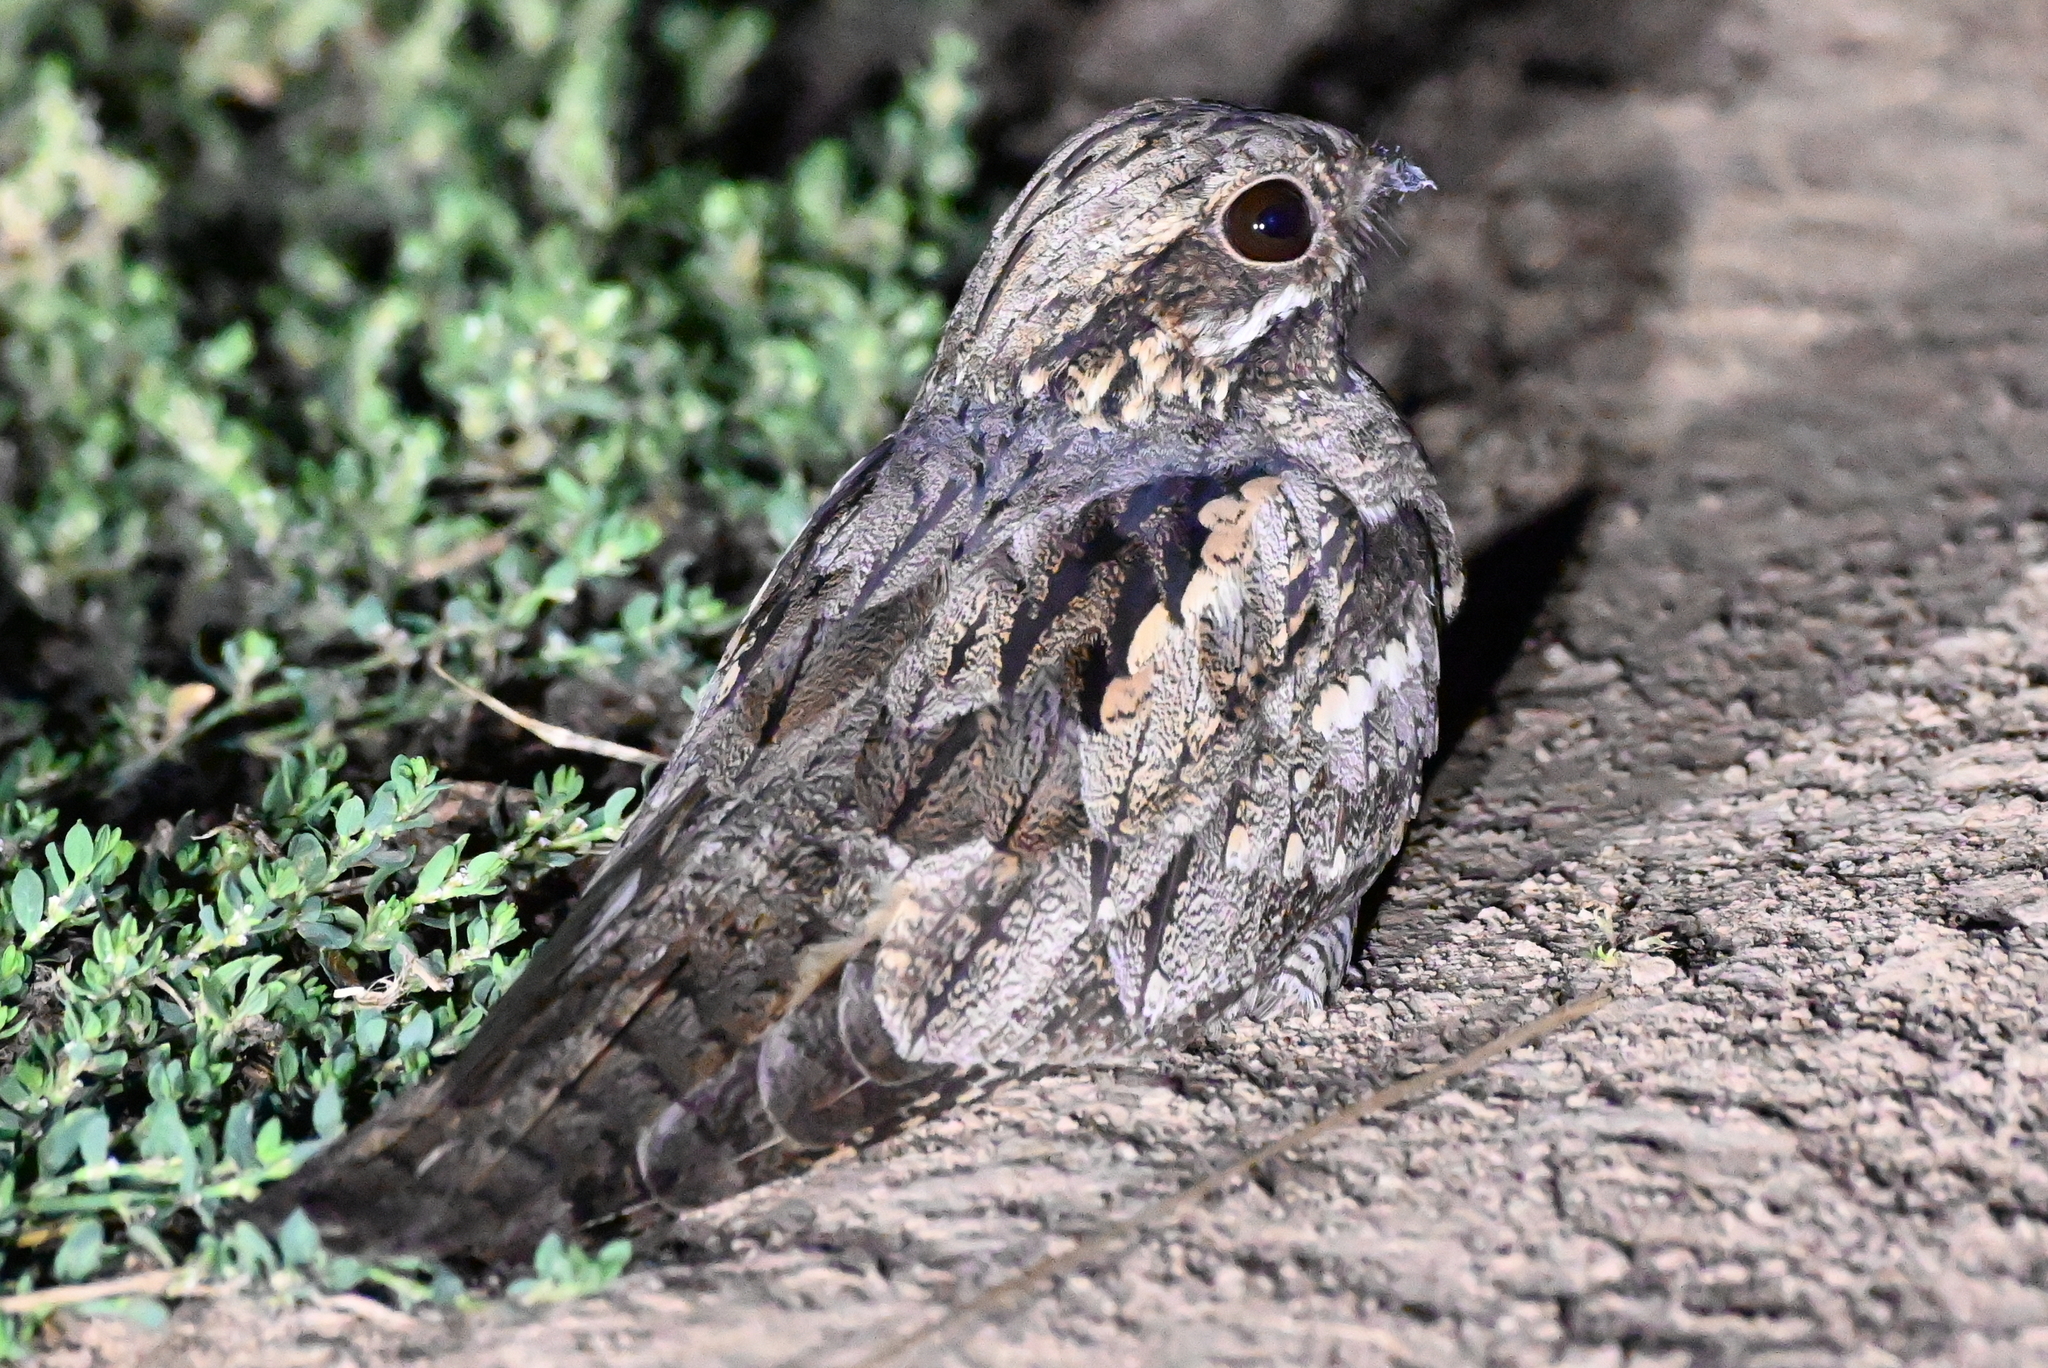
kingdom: Animalia
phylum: Chordata
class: Aves
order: Caprimulgiformes
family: Caprimulgidae
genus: Caprimulgus
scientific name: Caprimulgus europaeus
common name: European nightjar
